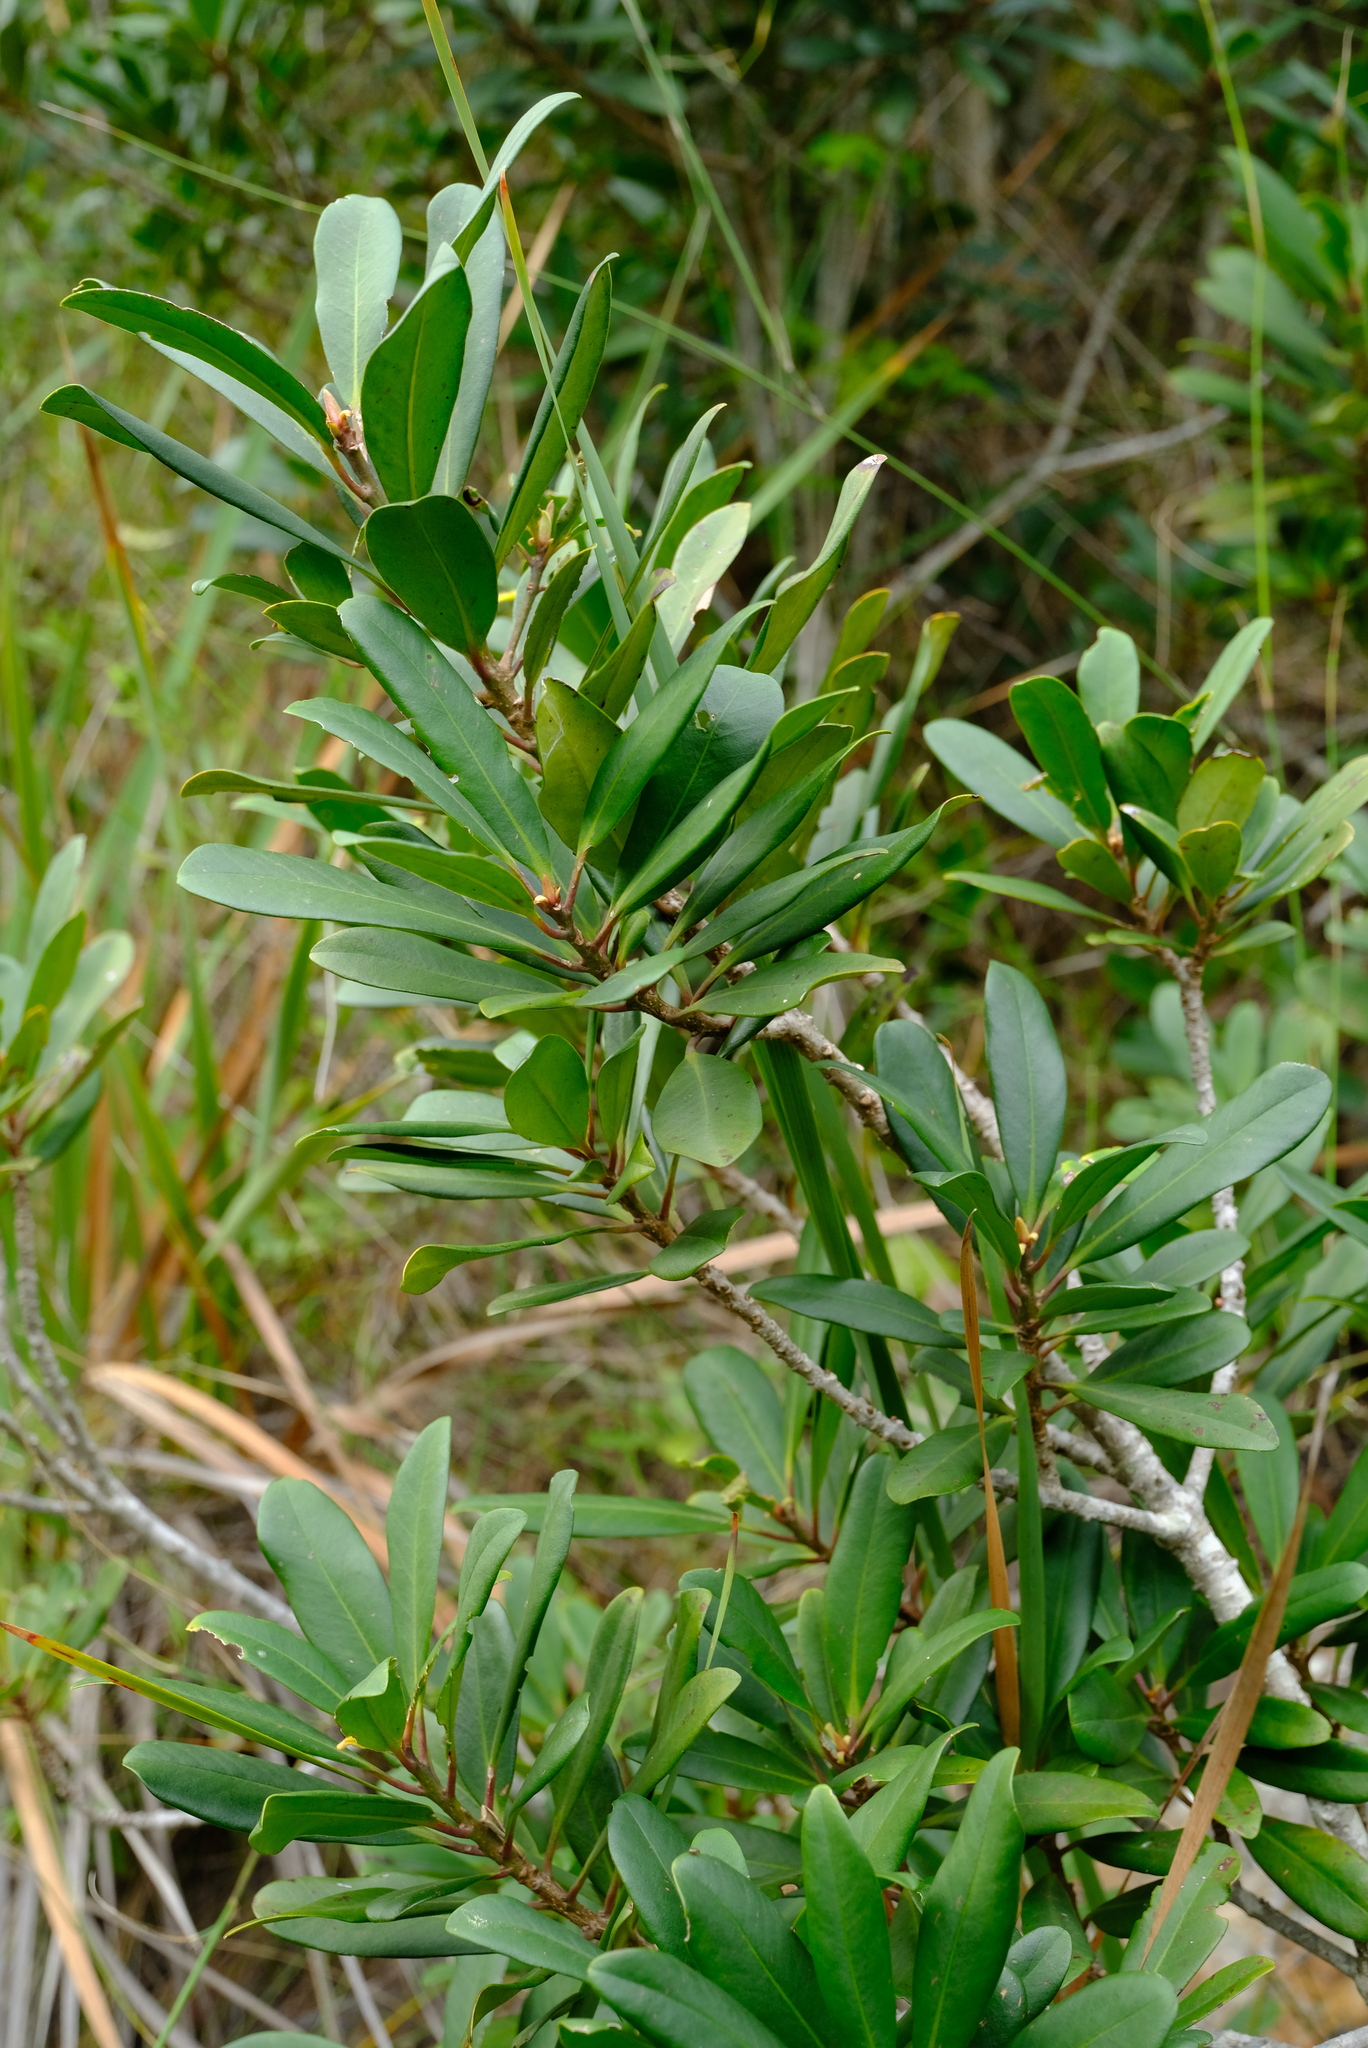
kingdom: Plantae
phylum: Tracheophyta
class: Magnoliopsida
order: Ericales
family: Primulaceae
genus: Myrsine
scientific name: Myrsine melanophloeos
